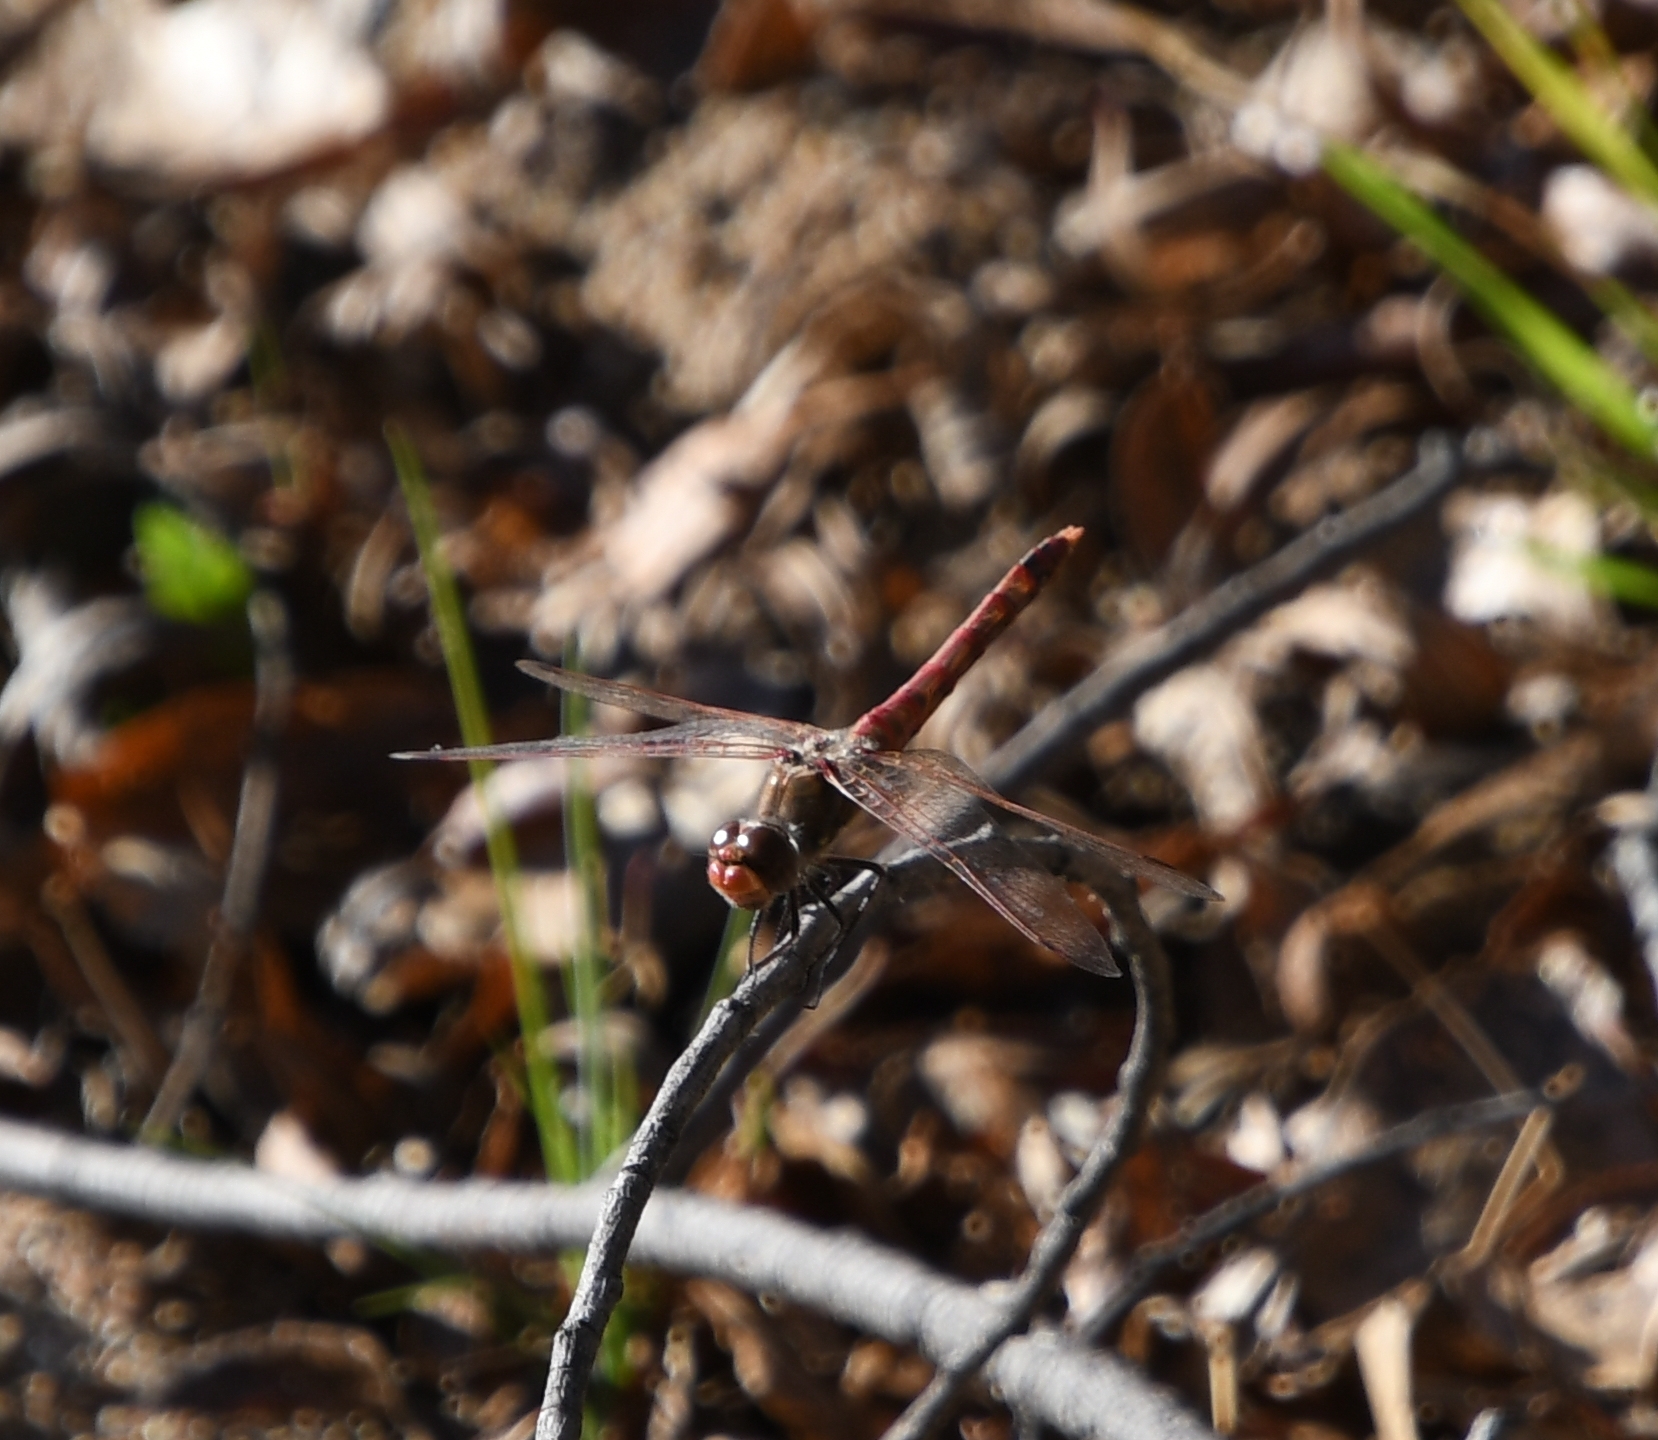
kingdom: Animalia
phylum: Arthropoda
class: Insecta
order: Odonata
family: Libellulidae
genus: Sympetrum
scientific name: Sympetrum corruptum
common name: Variegated meadowhawk
